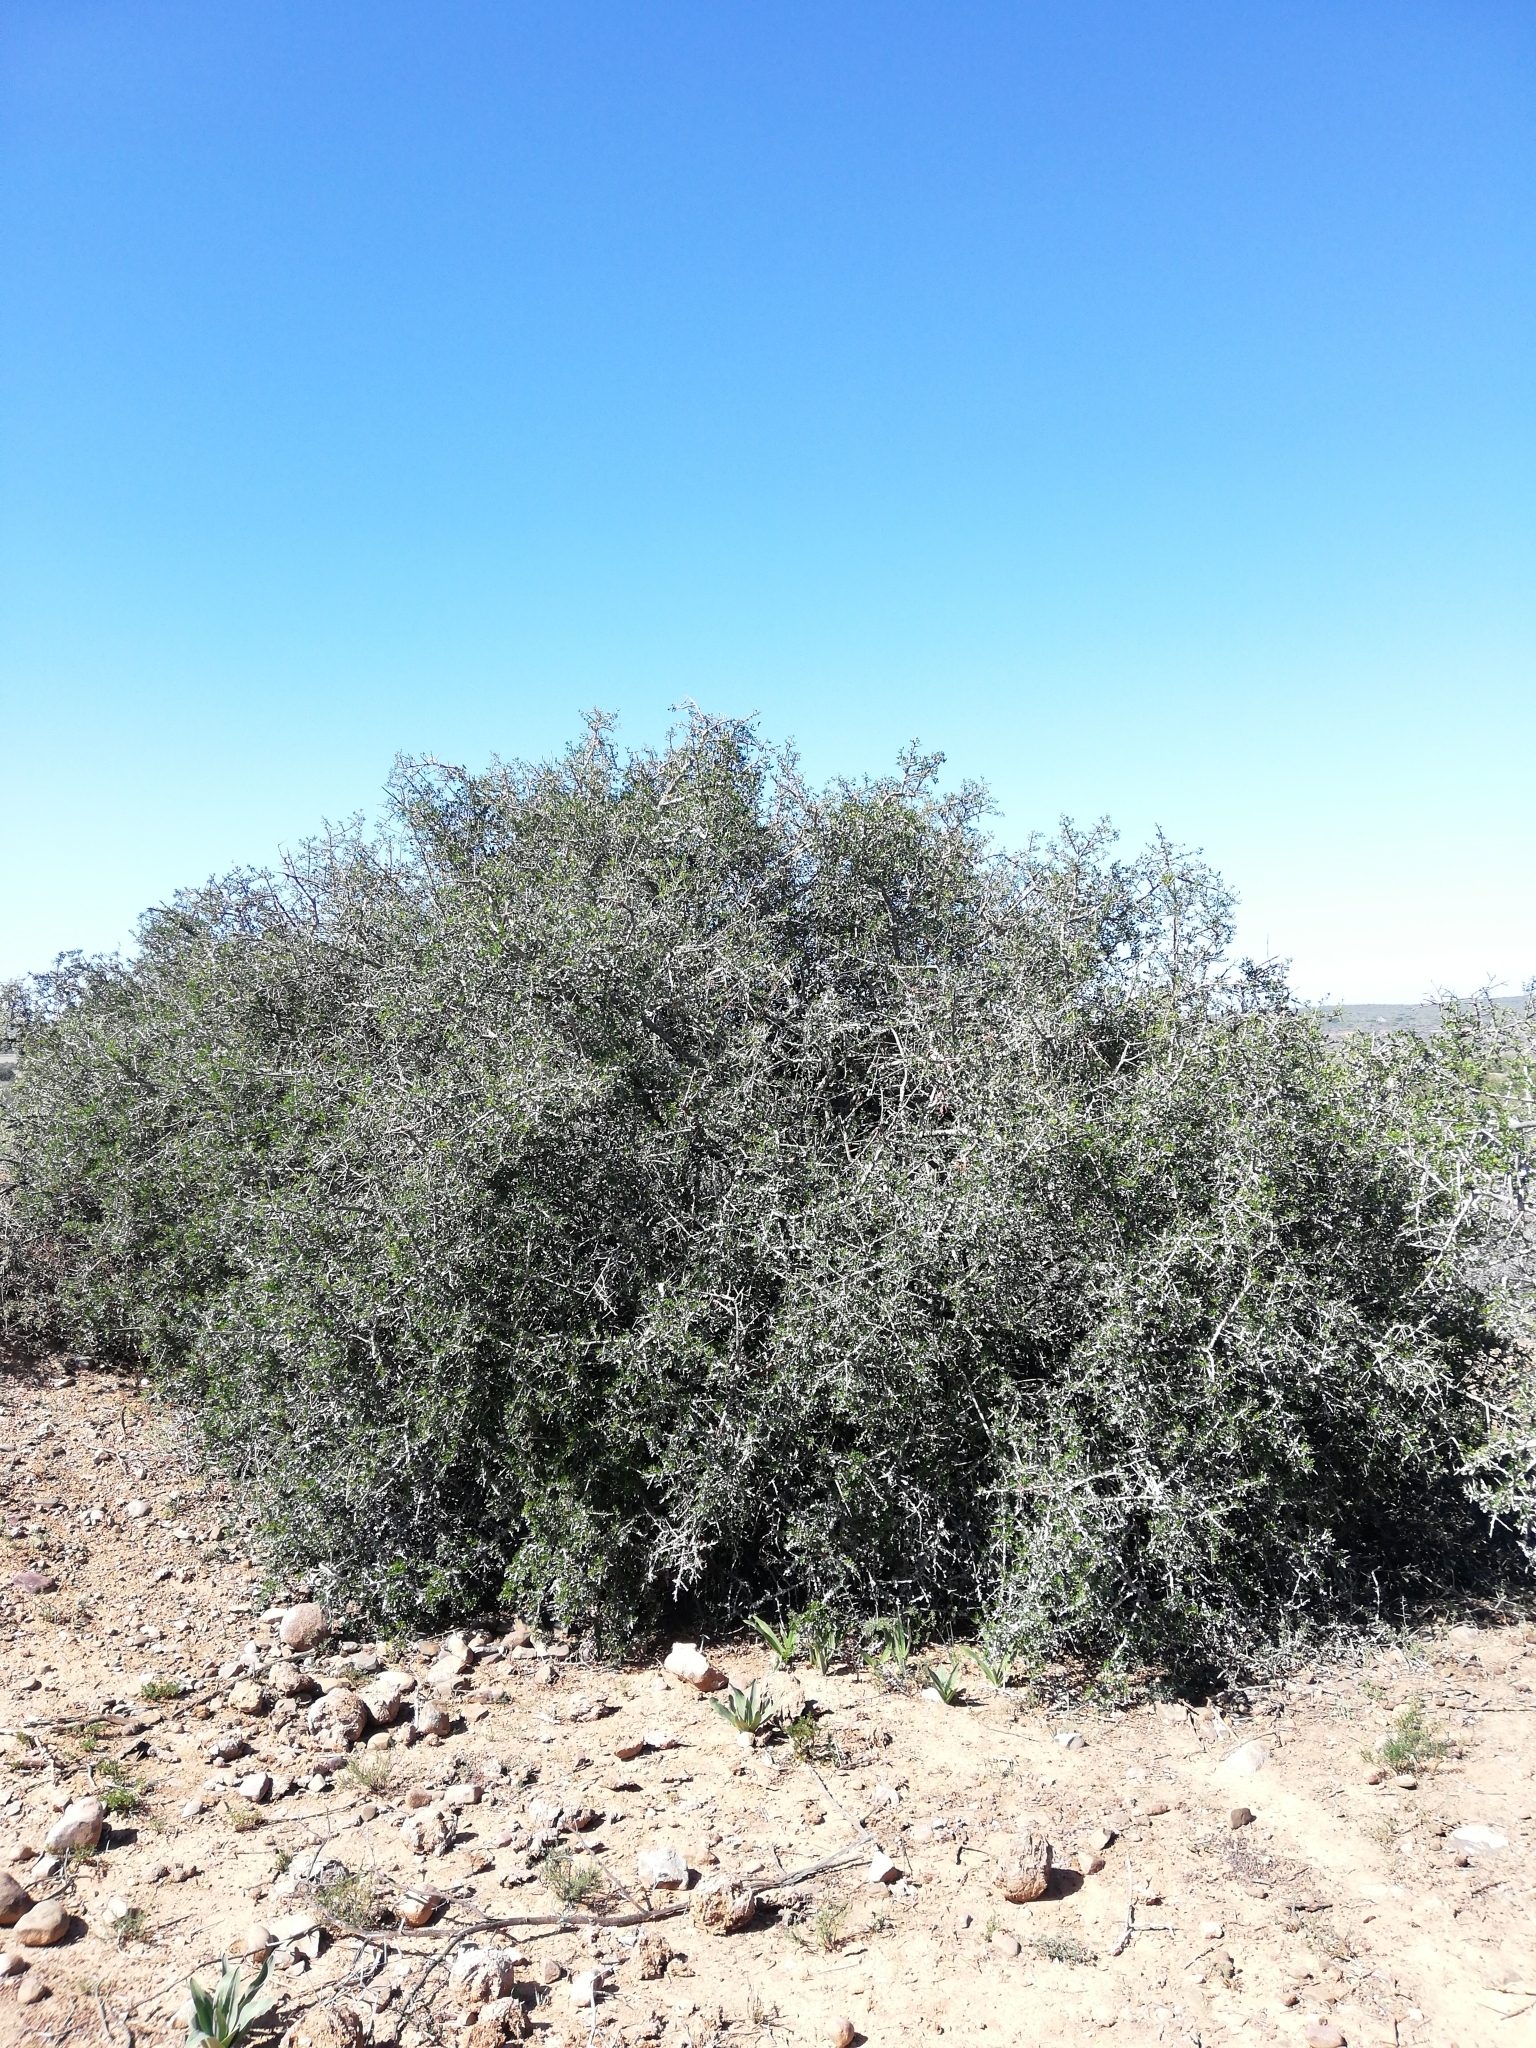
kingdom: Plantae
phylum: Tracheophyta
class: Magnoliopsida
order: Sapindales
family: Anacardiaceae
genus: Searsia
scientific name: Searsia longispina
